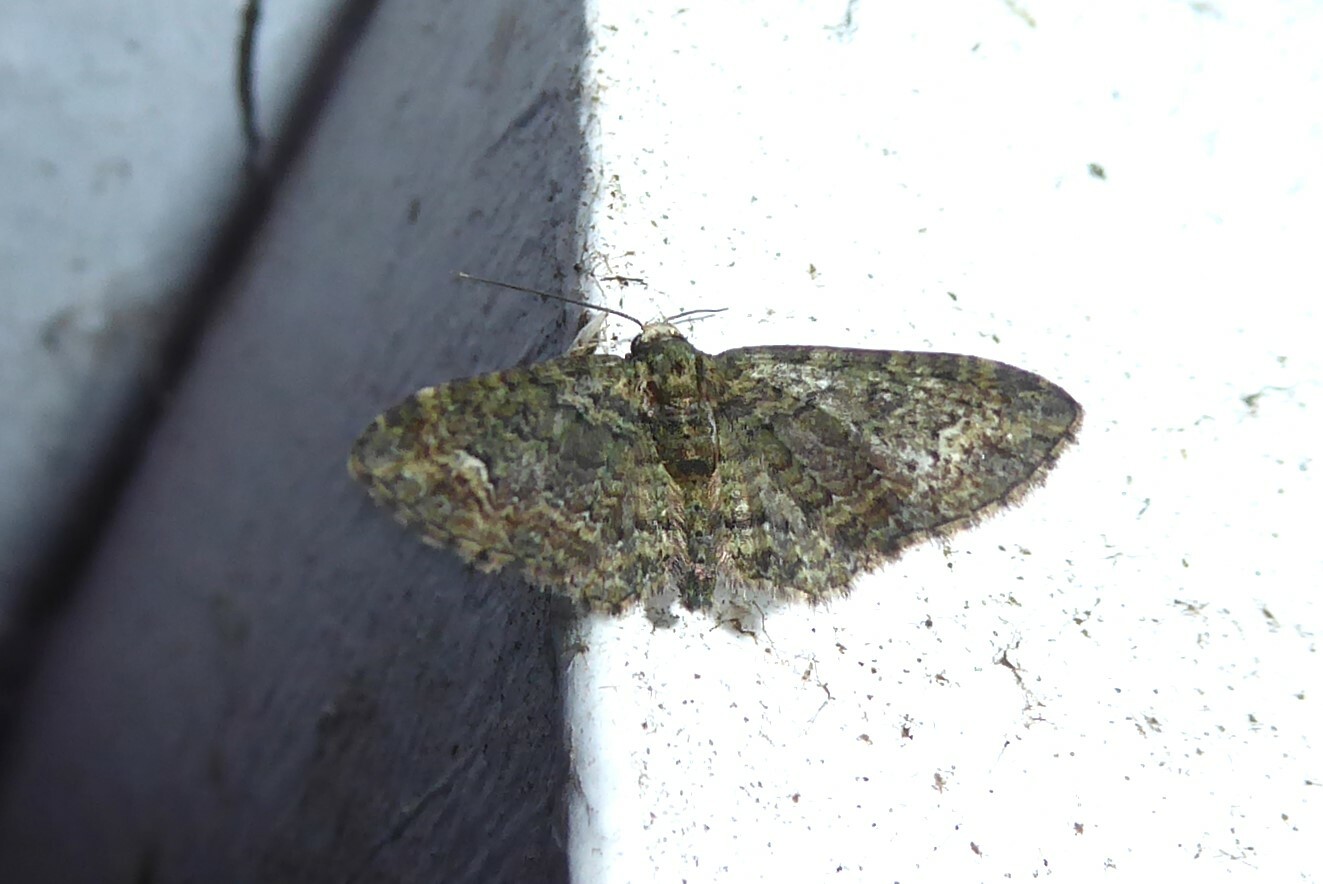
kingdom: Animalia
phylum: Arthropoda
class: Insecta
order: Lepidoptera
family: Geometridae
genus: Pasiphilodes
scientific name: Pasiphilodes testulata
